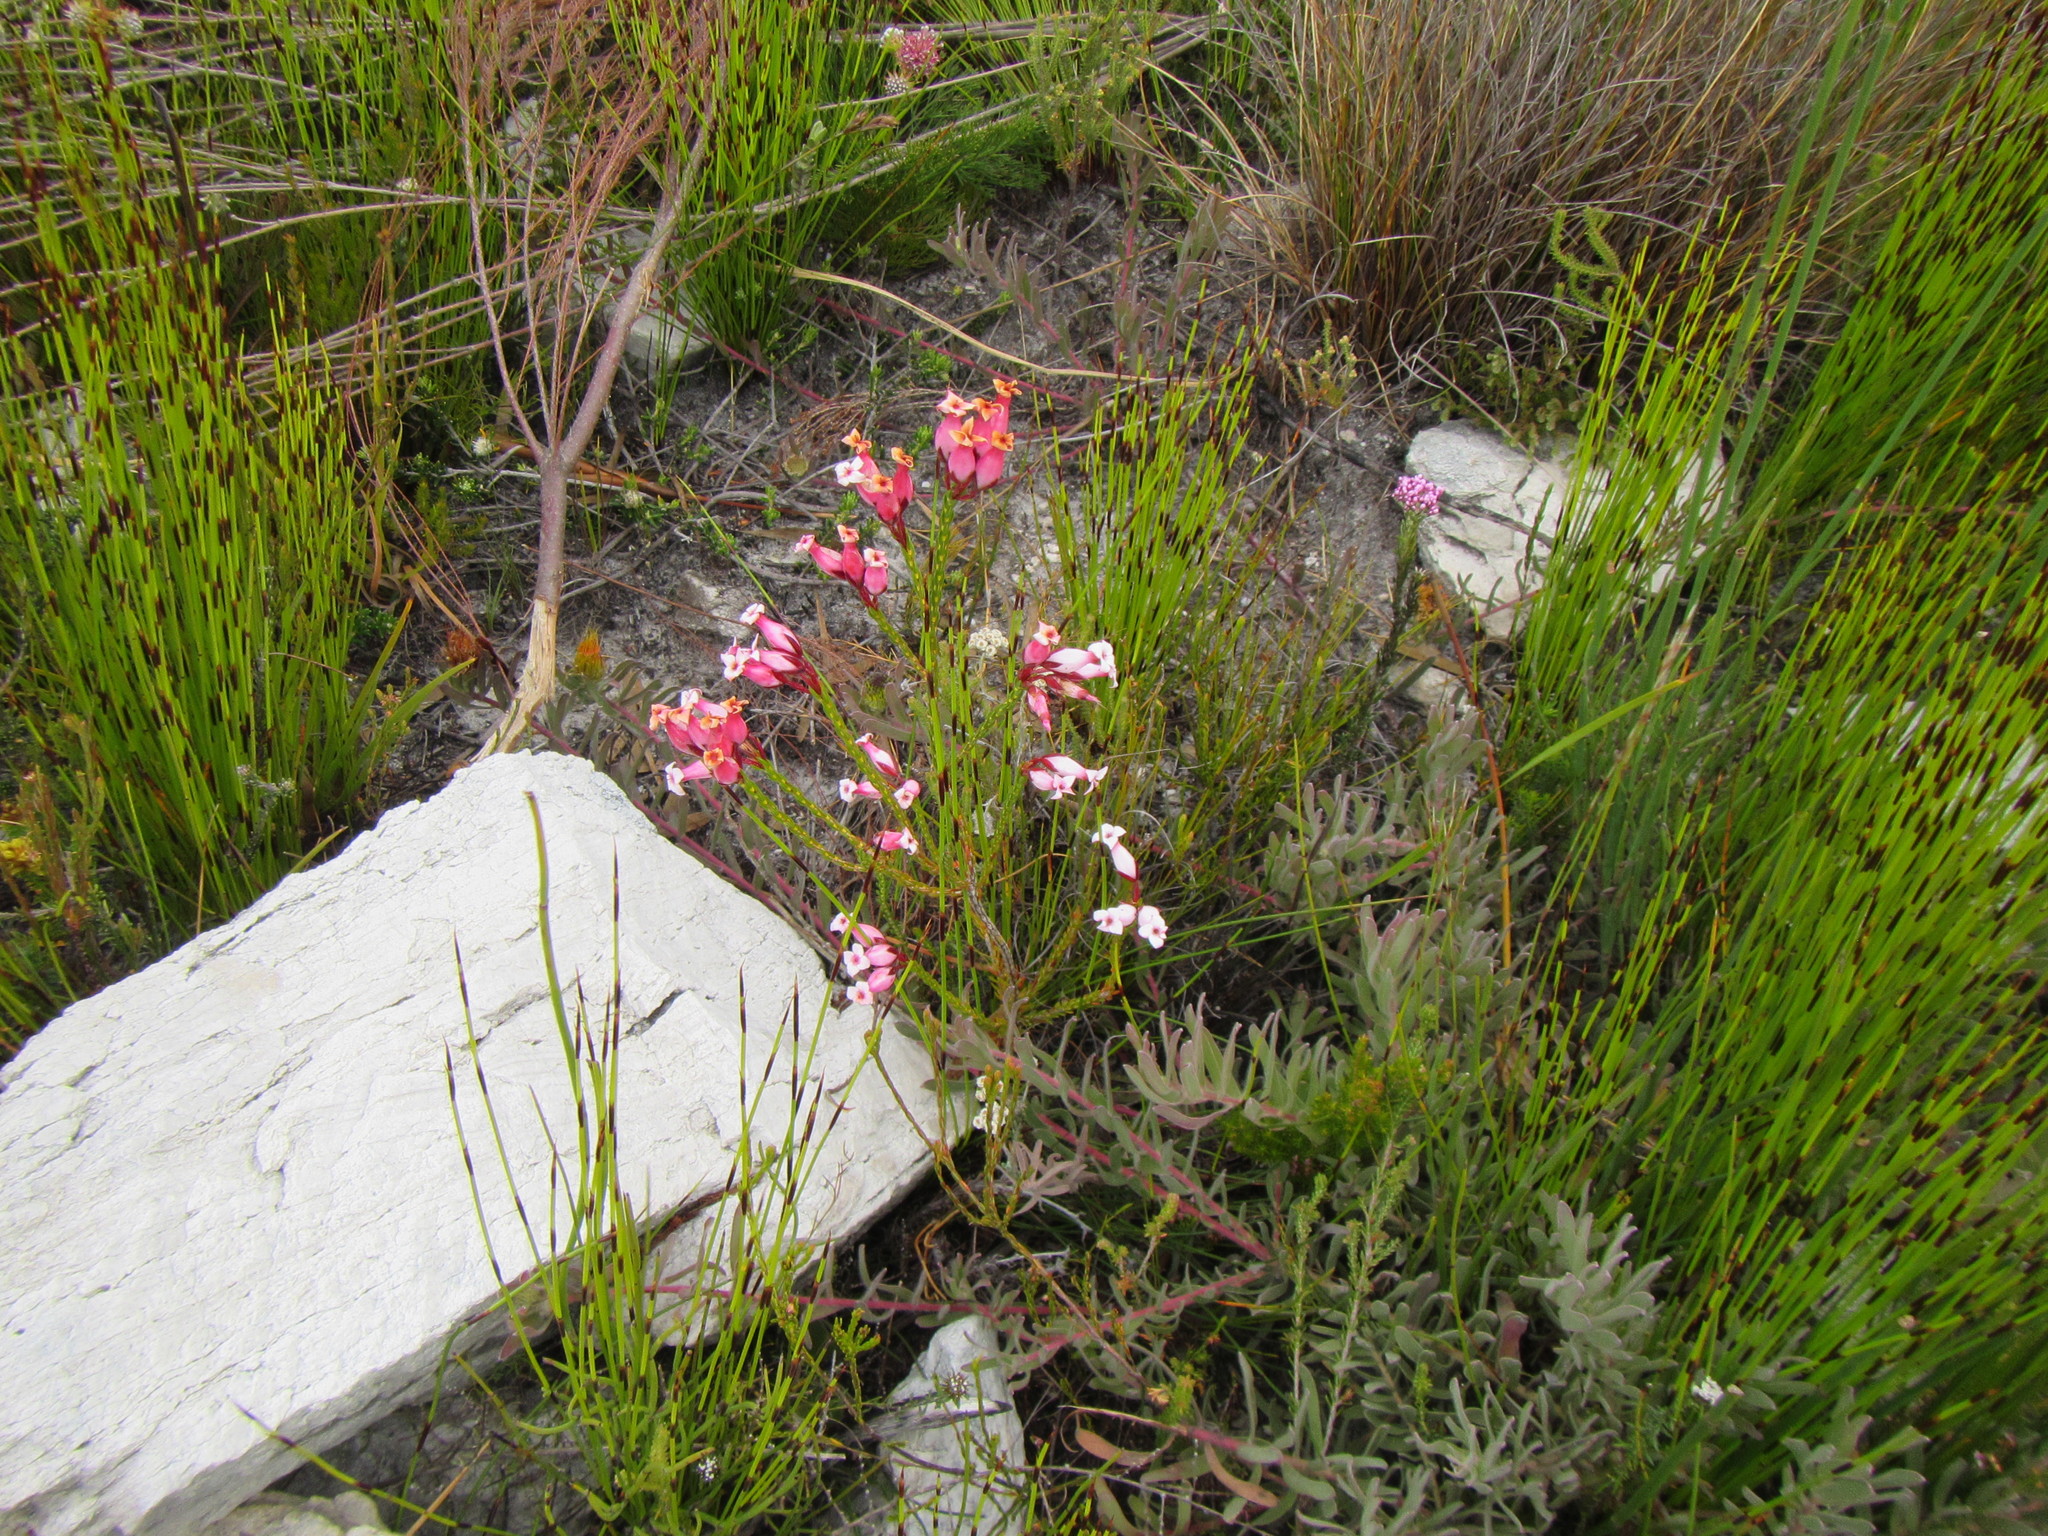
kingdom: Plantae
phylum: Tracheophyta
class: Magnoliopsida
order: Ericales
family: Ericaceae
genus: Erica
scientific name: Erica irbyana
